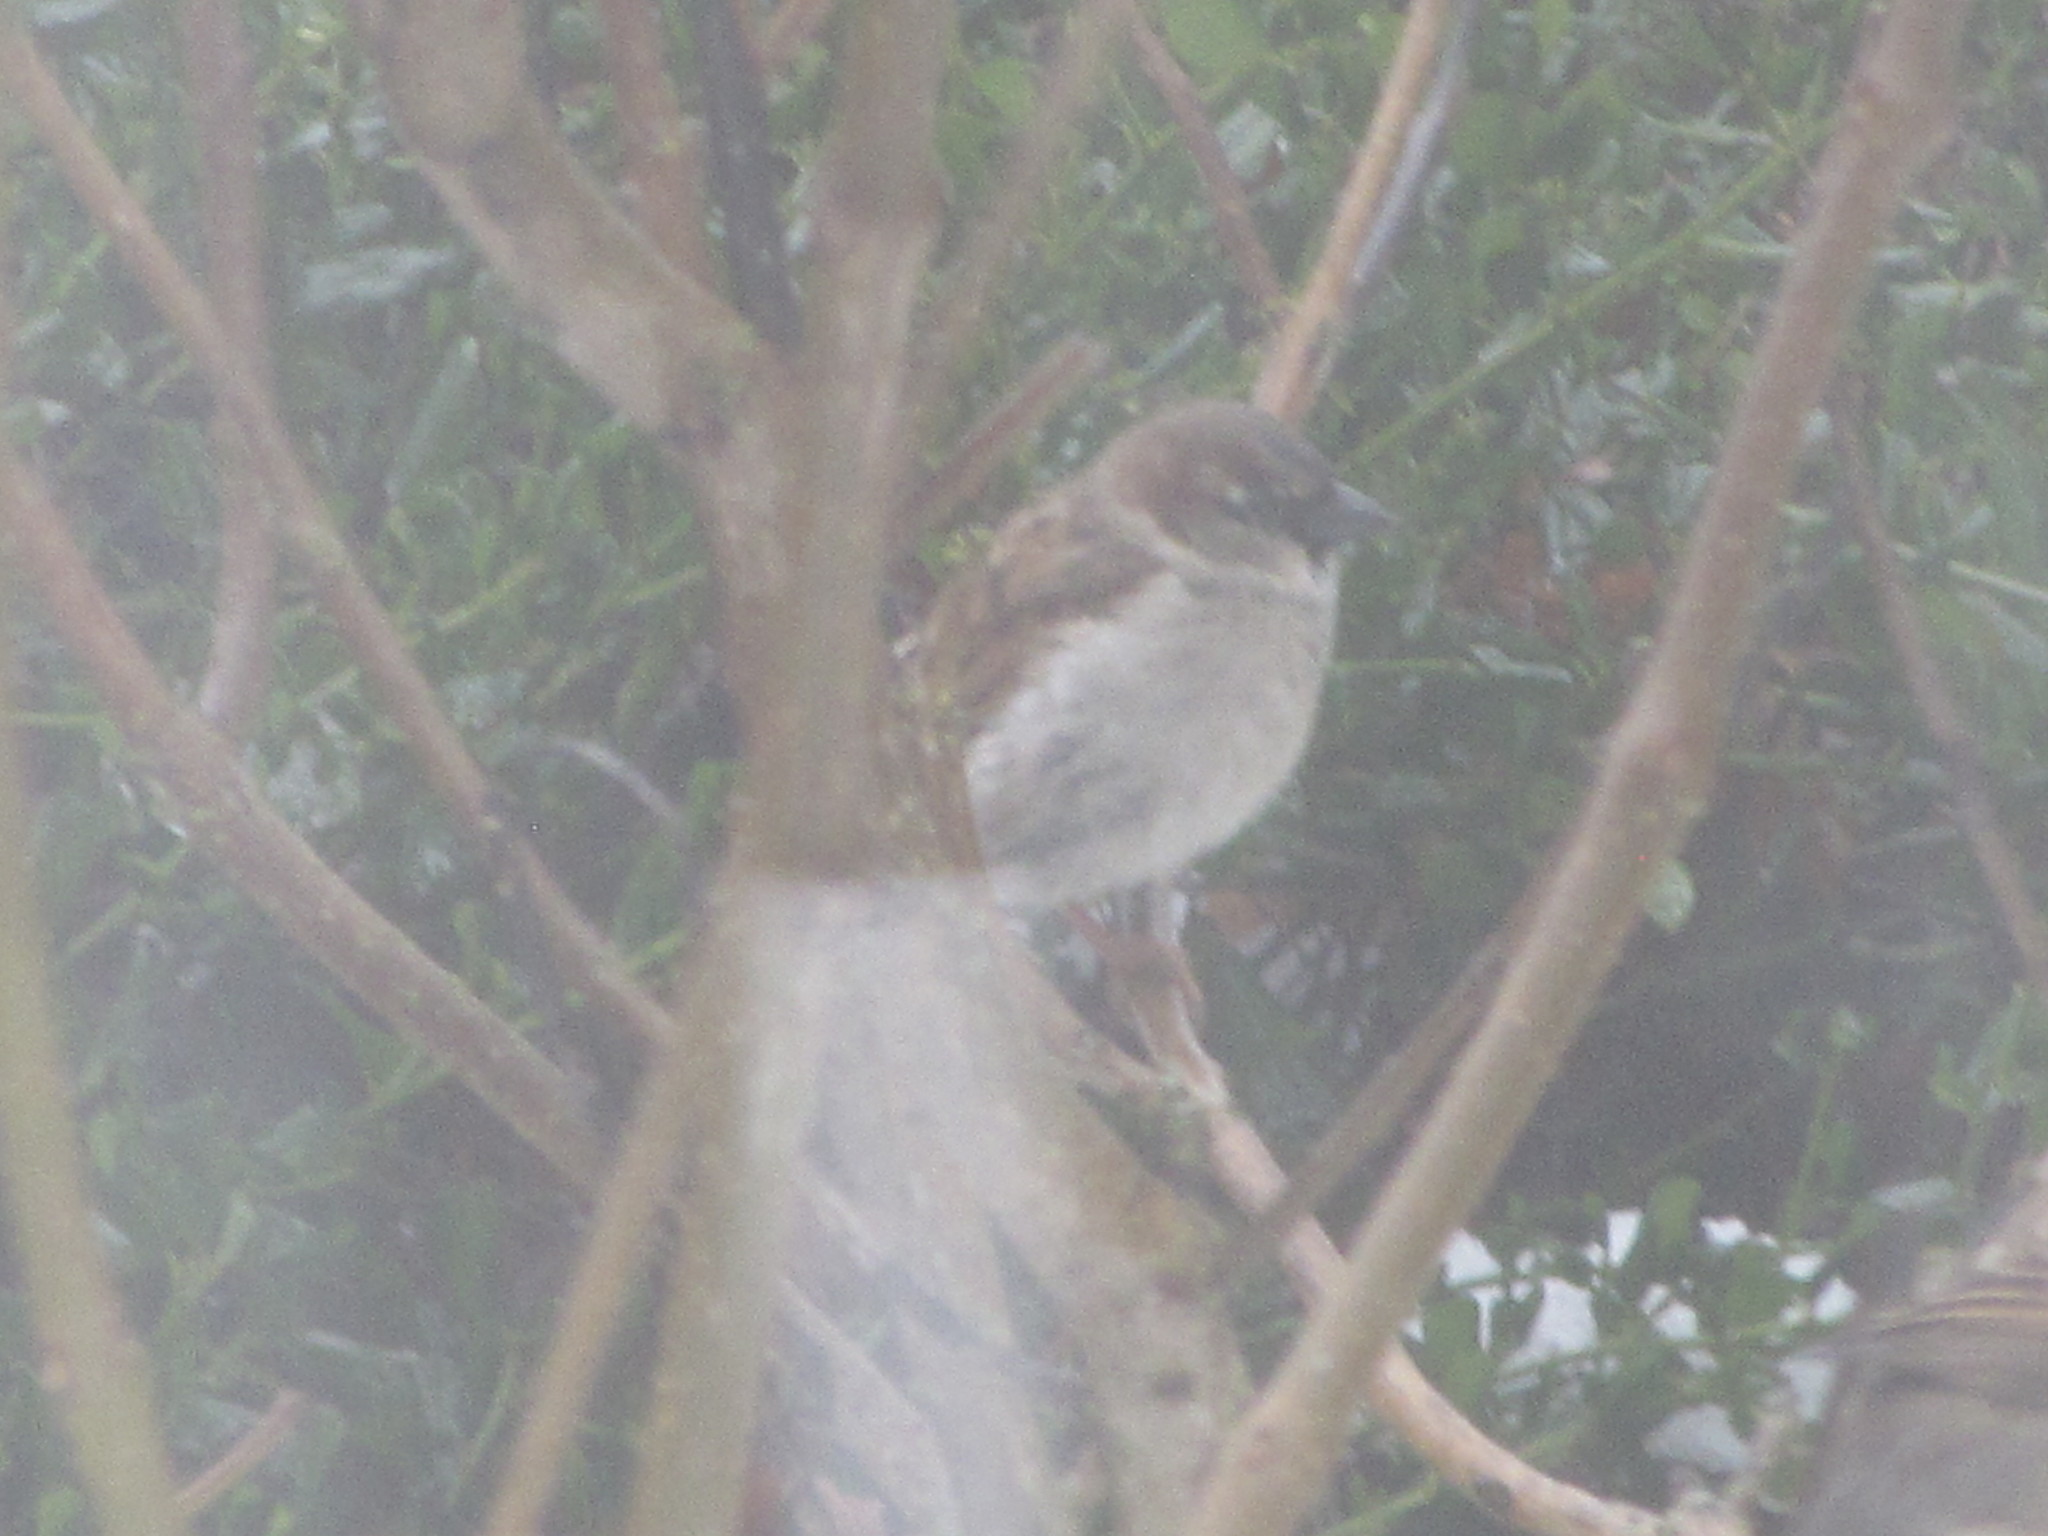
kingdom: Animalia
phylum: Chordata
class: Aves
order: Passeriformes
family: Passeridae
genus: Passer
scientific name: Passer domesticus
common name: House sparrow
